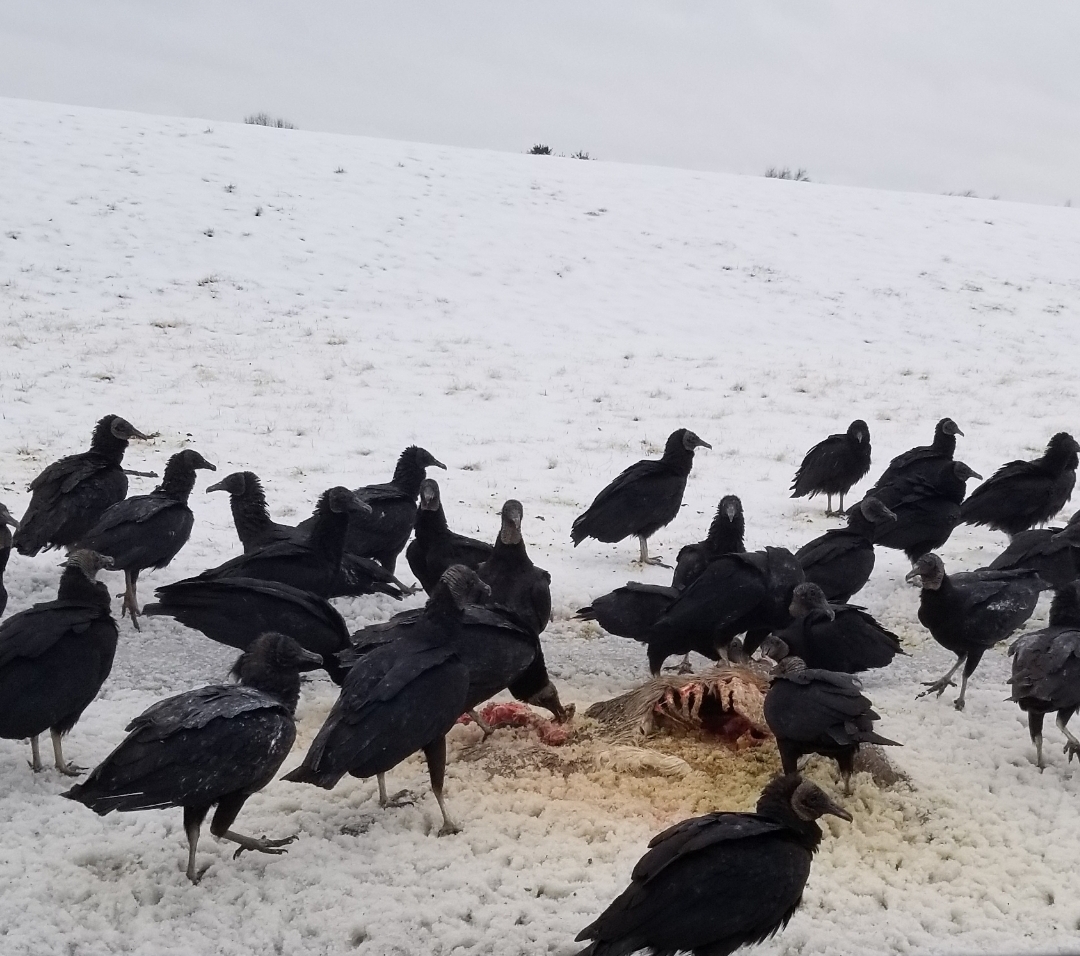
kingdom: Animalia
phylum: Chordata
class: Aves
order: Accipitriformes
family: Cathartidae
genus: Coragyps
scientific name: Coragyps atratus
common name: Black vulture
